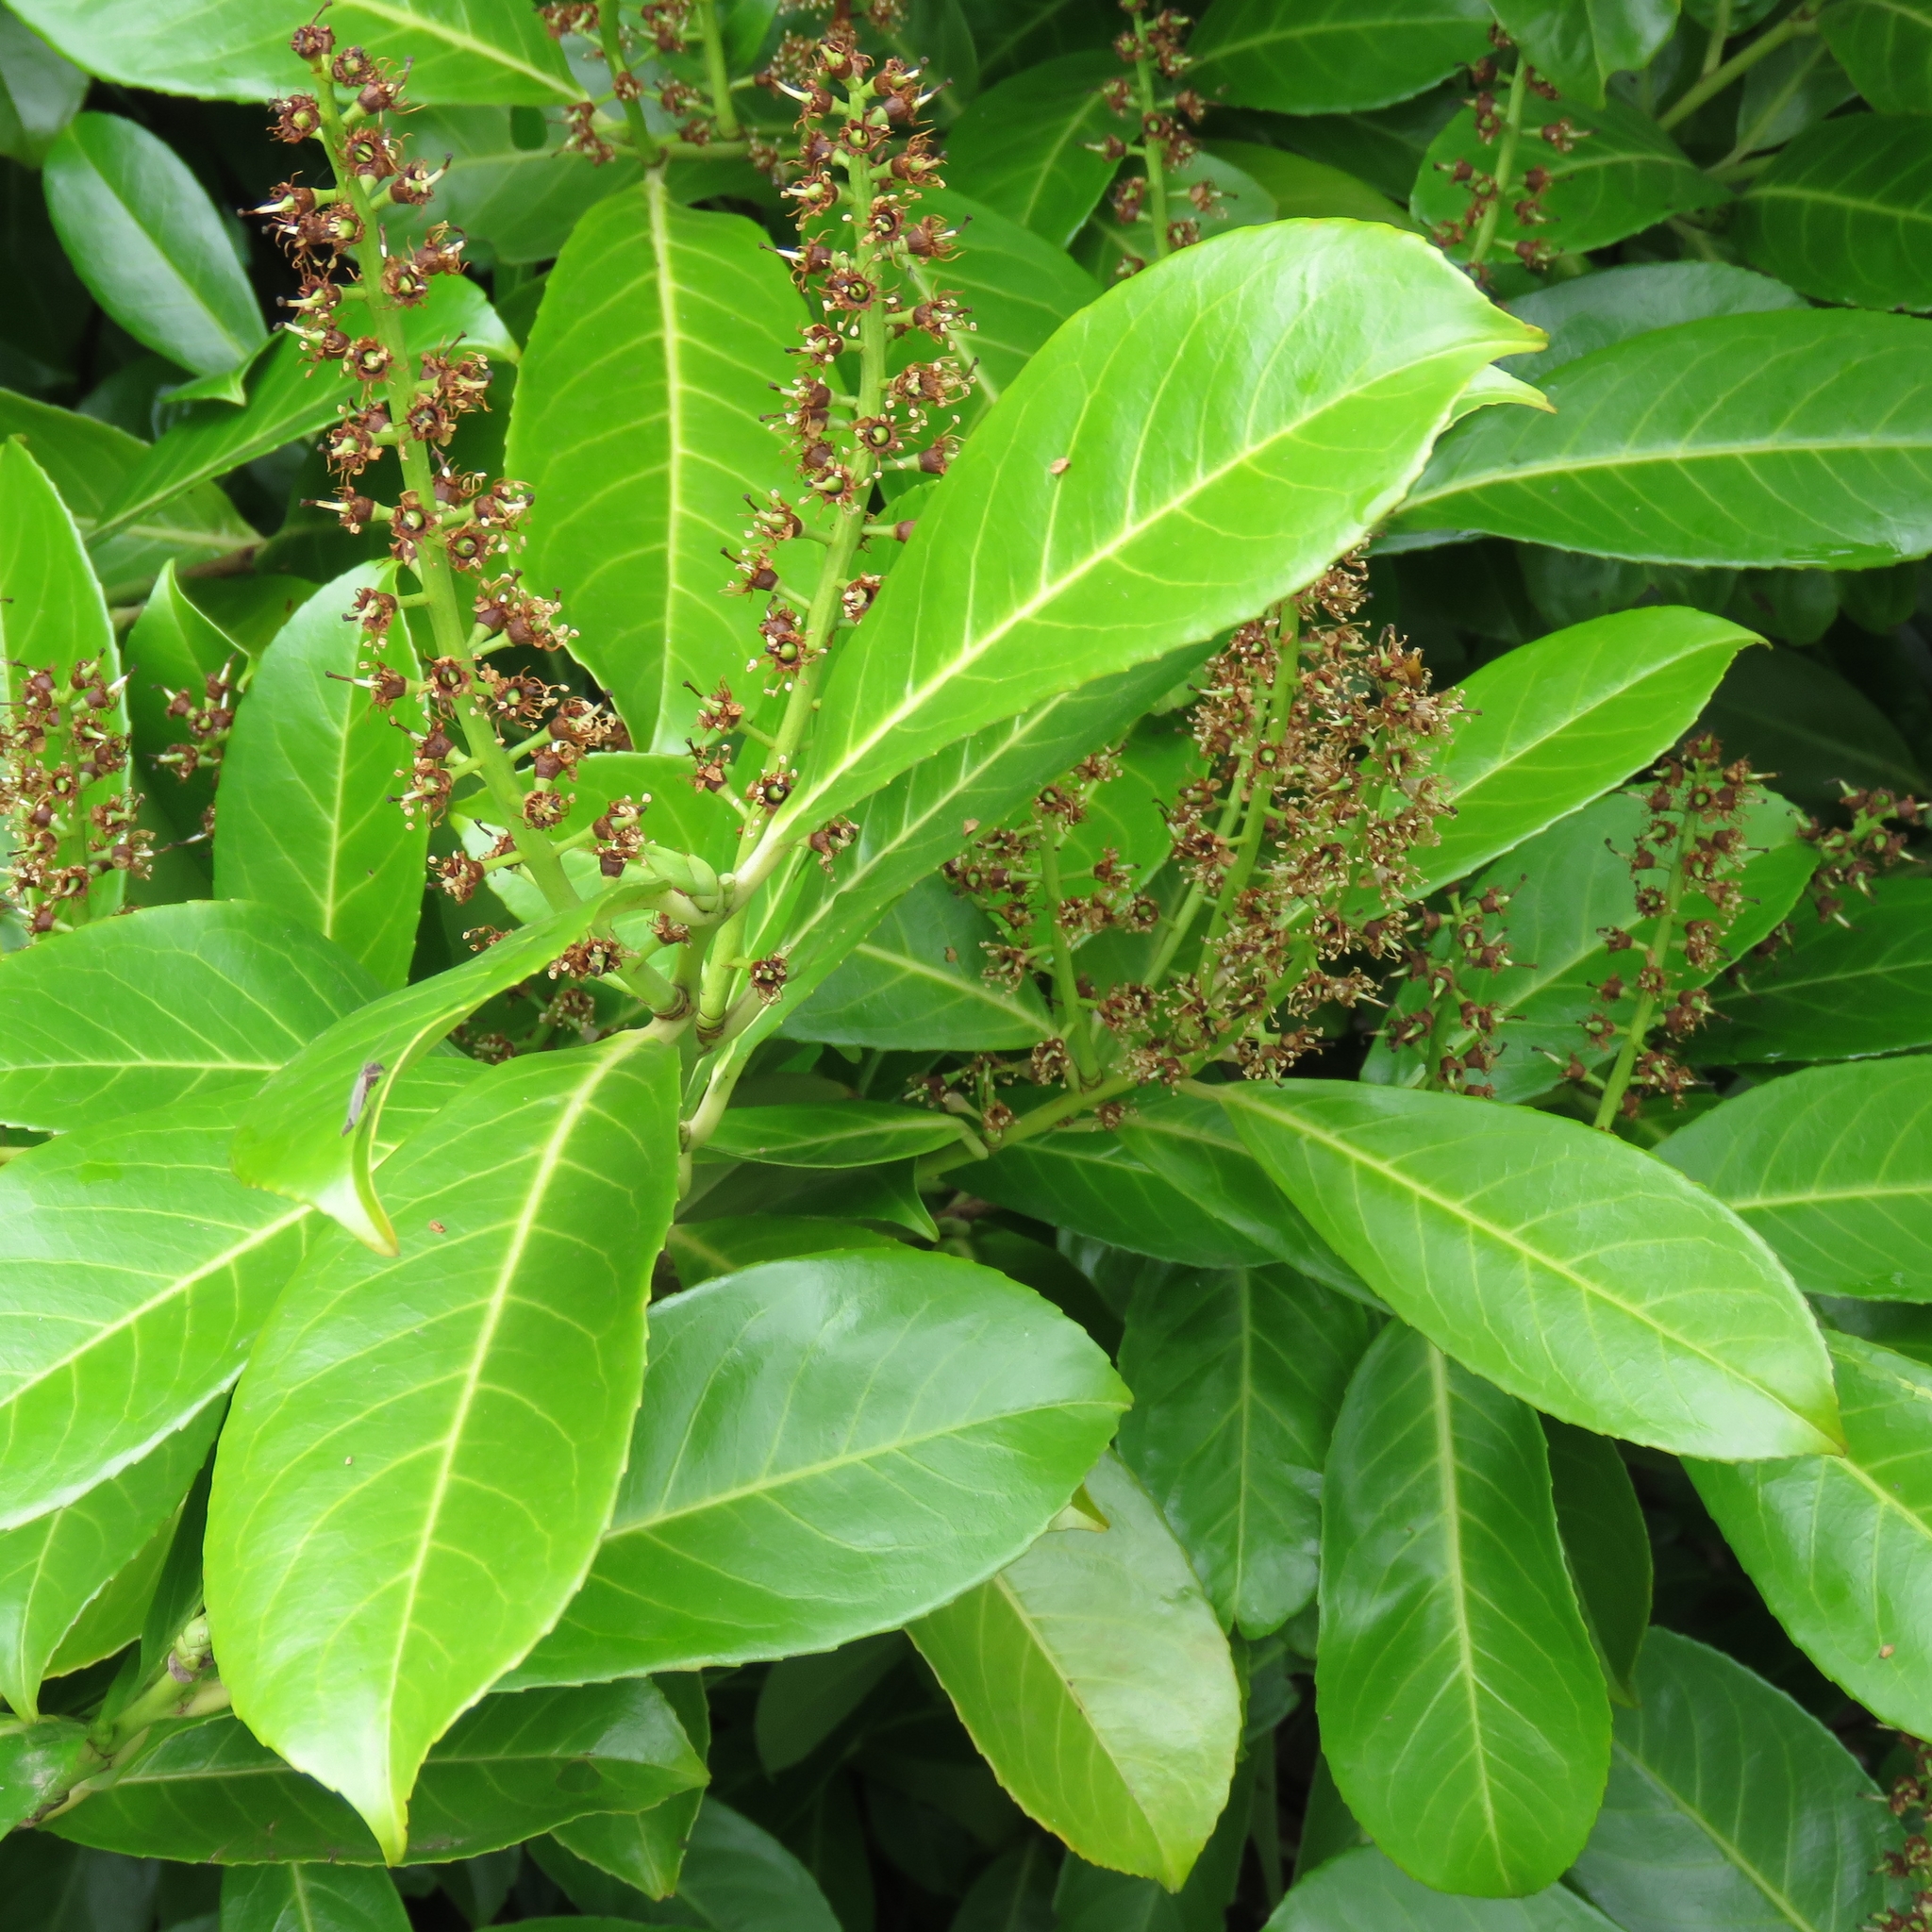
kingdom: Plantae
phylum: Tracheophyta
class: Magnoliopsida
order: Rosales
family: Rosaceae
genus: Prunus
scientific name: Prunus laurocerasus
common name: Cherry laurel
